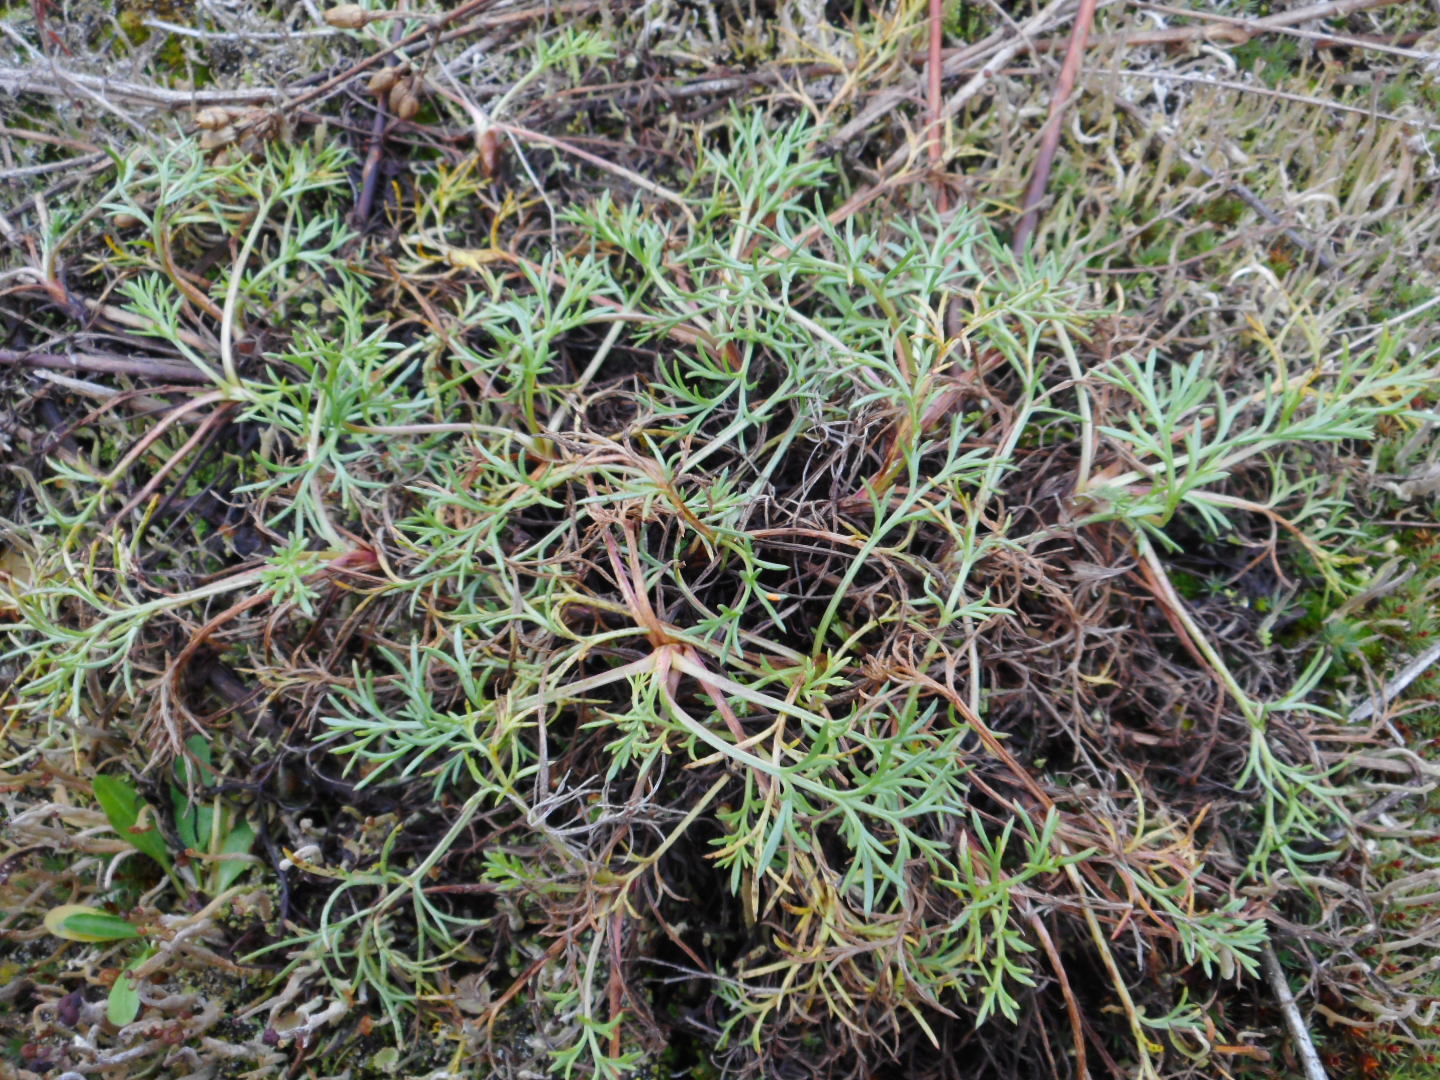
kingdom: Plantae
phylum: Tracheophyta
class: Magnoliopsida
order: Asterales
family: Asteraceae
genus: Artemisia
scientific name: Artemisia campestris
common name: Field wormwood
